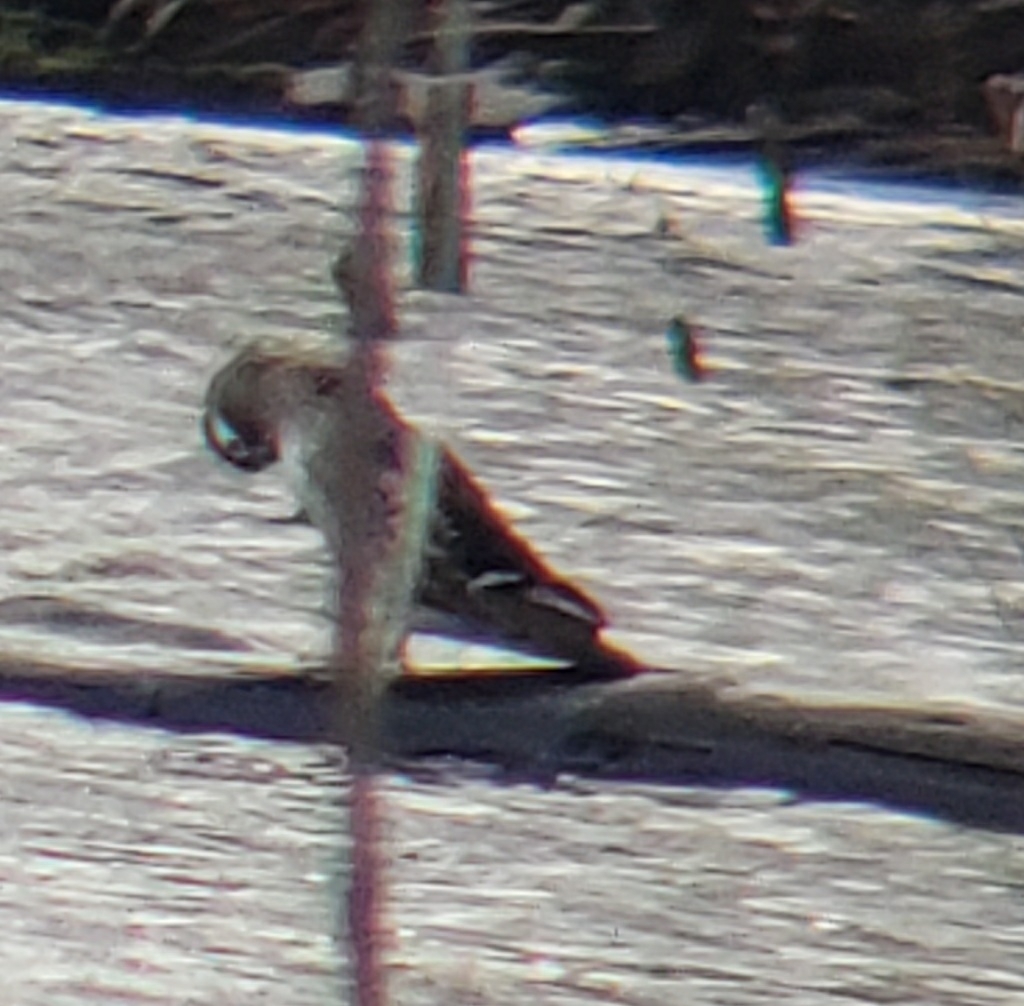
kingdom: Animalia
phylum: Chordata
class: Aves
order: Anseriformes
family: Anatidae
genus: Aix
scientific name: Aix sponsa
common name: Wood duck
